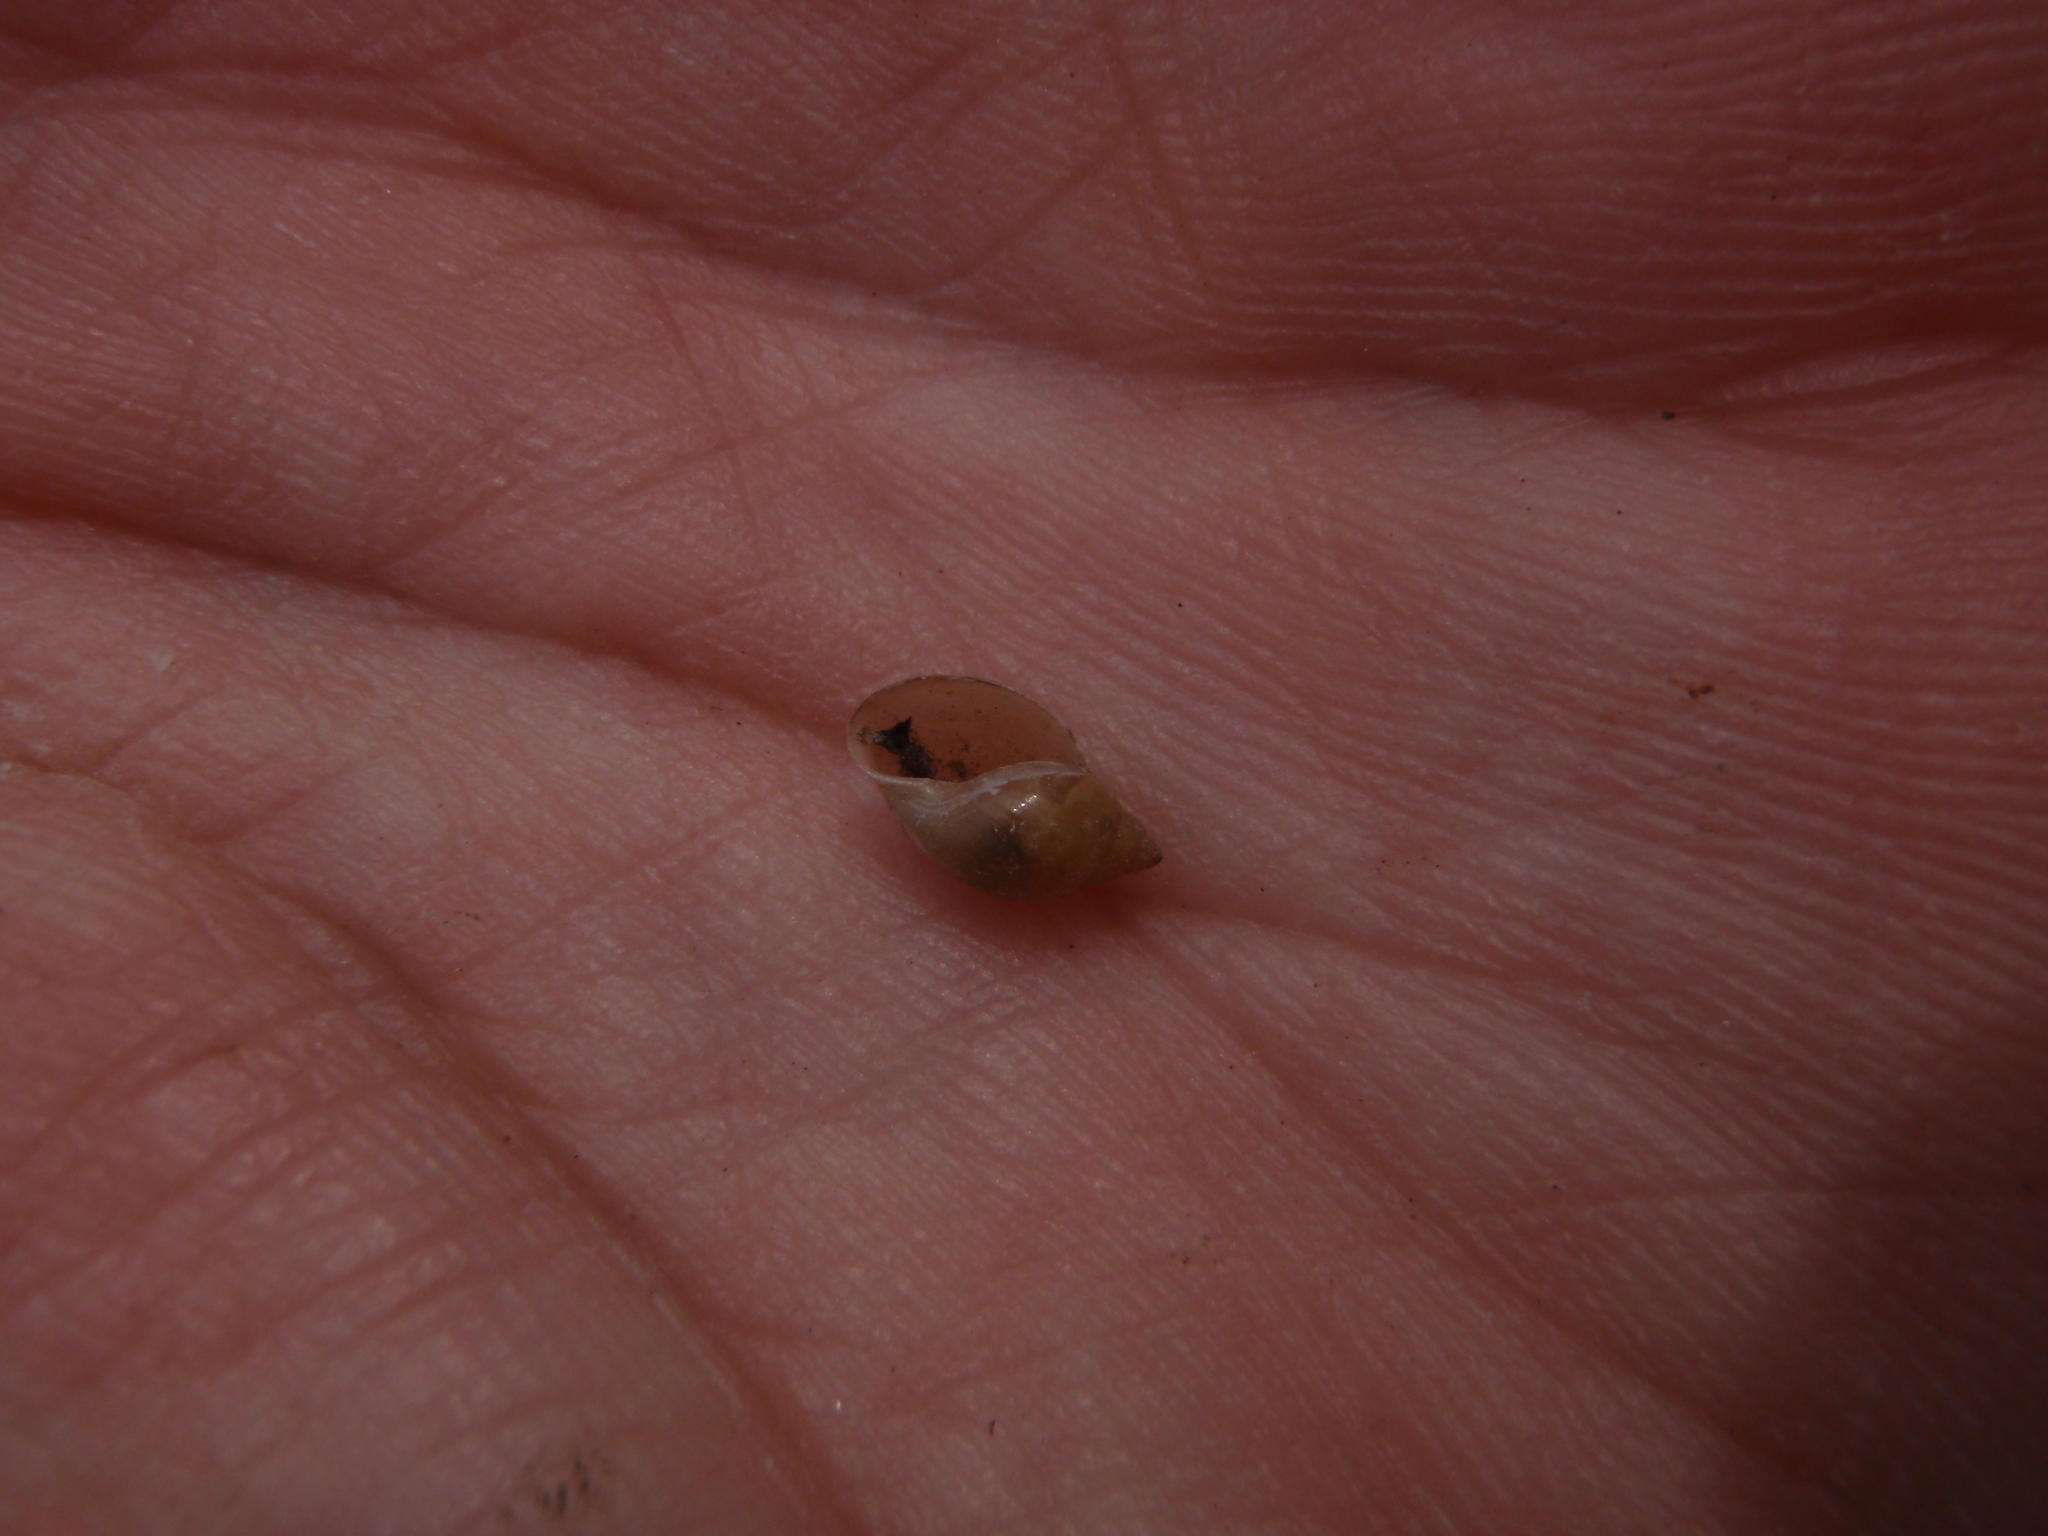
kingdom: Animalia
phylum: Mollusca
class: Gastropoda
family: Physidae
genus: Physella
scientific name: Physella acuta
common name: European physa
